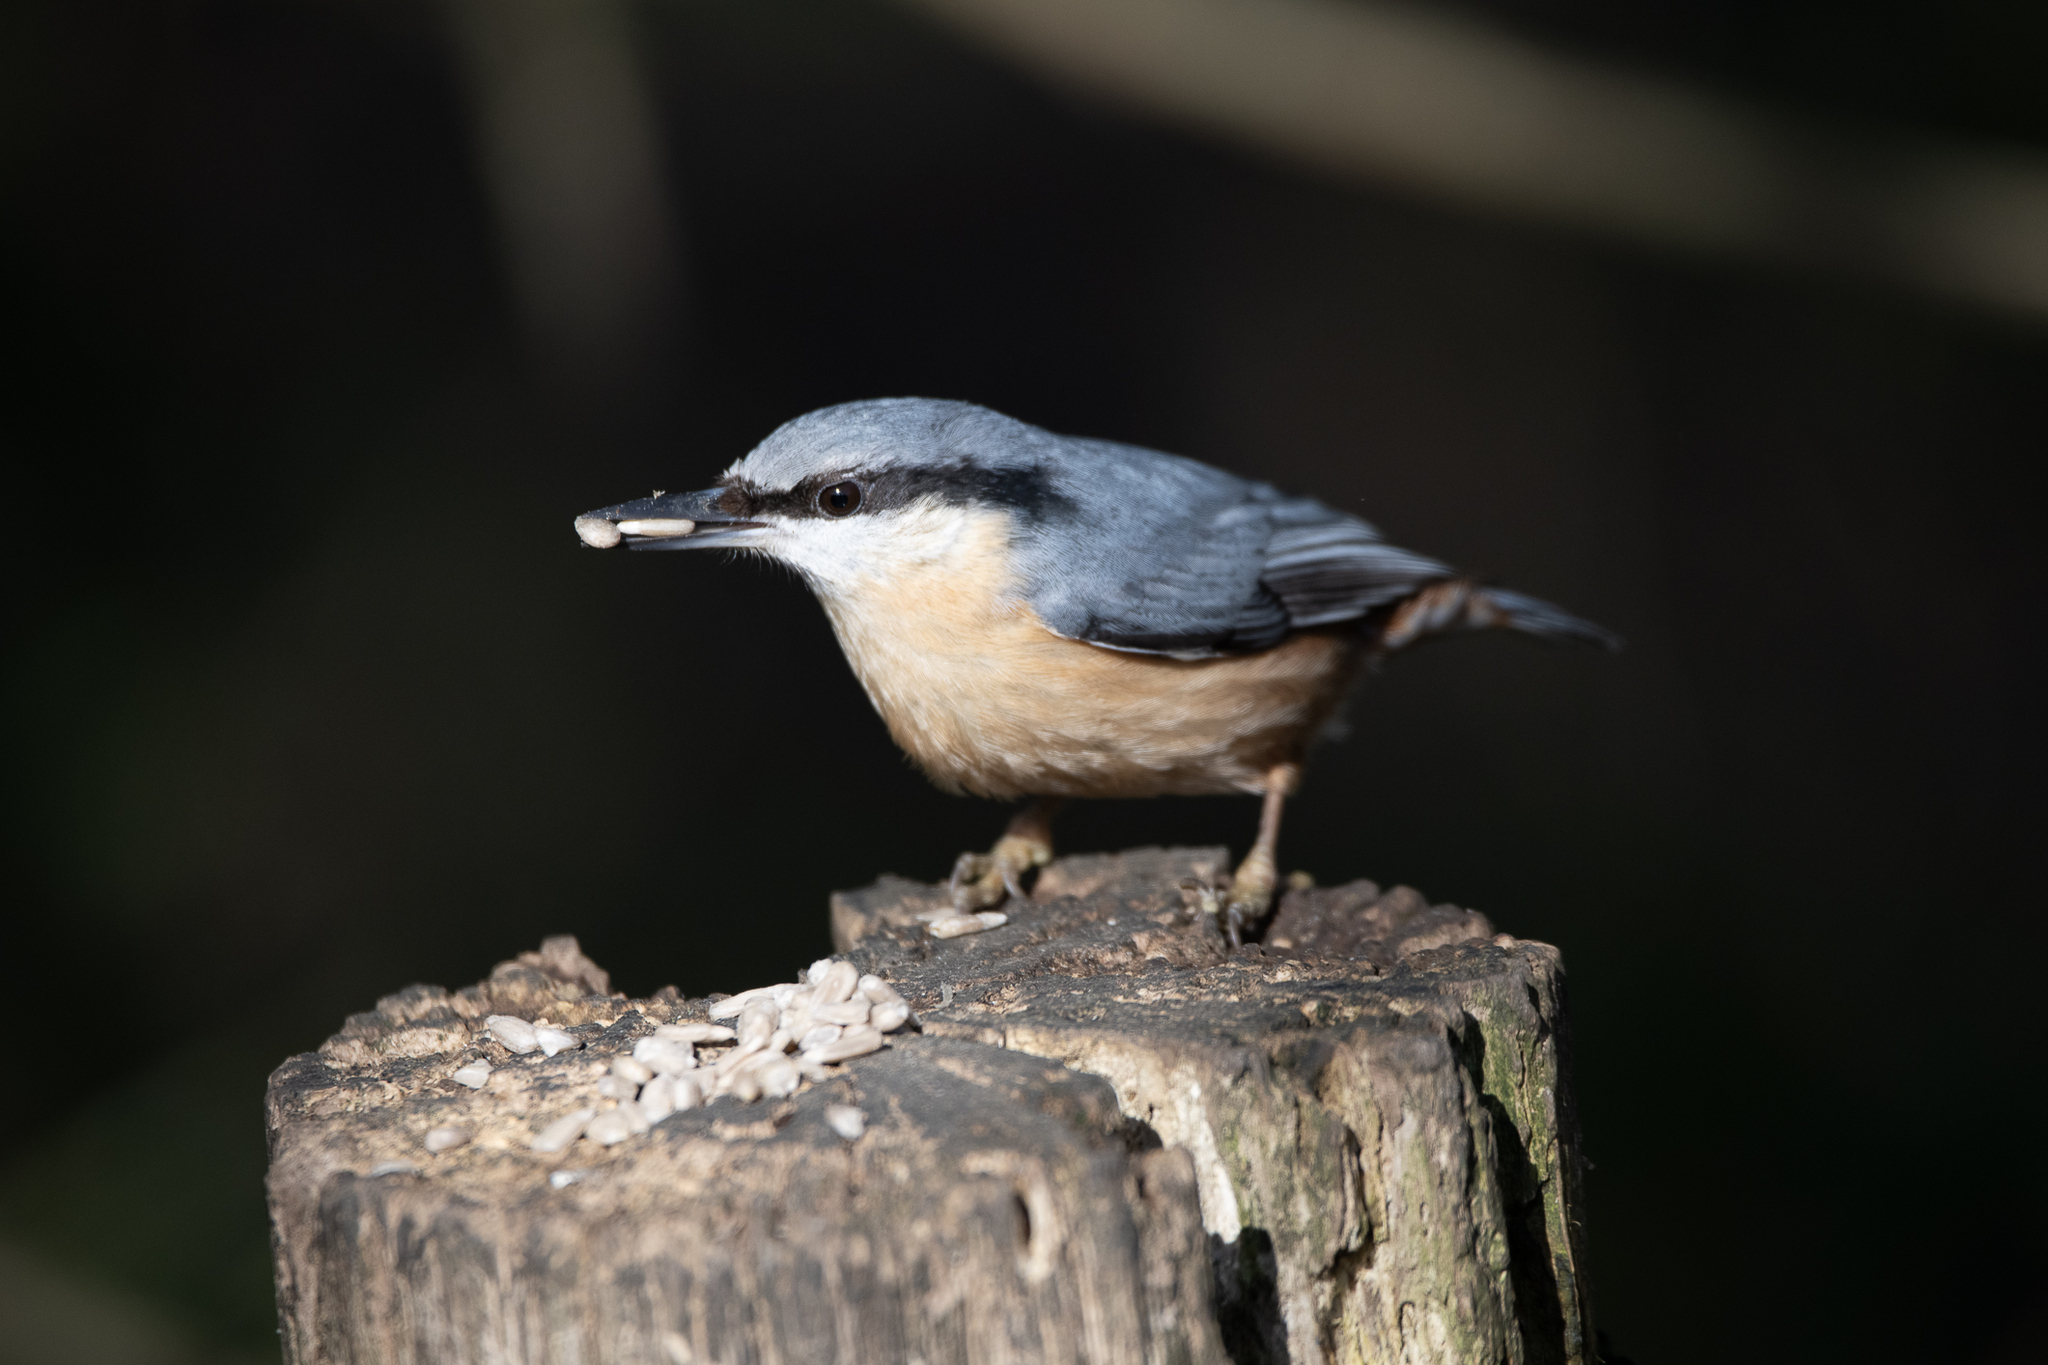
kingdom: Animalia
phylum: Chordata
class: Aves
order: Passeriformes
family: Sittidae
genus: Sitta
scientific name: Sitta europaea
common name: Eurasian nuthatch
